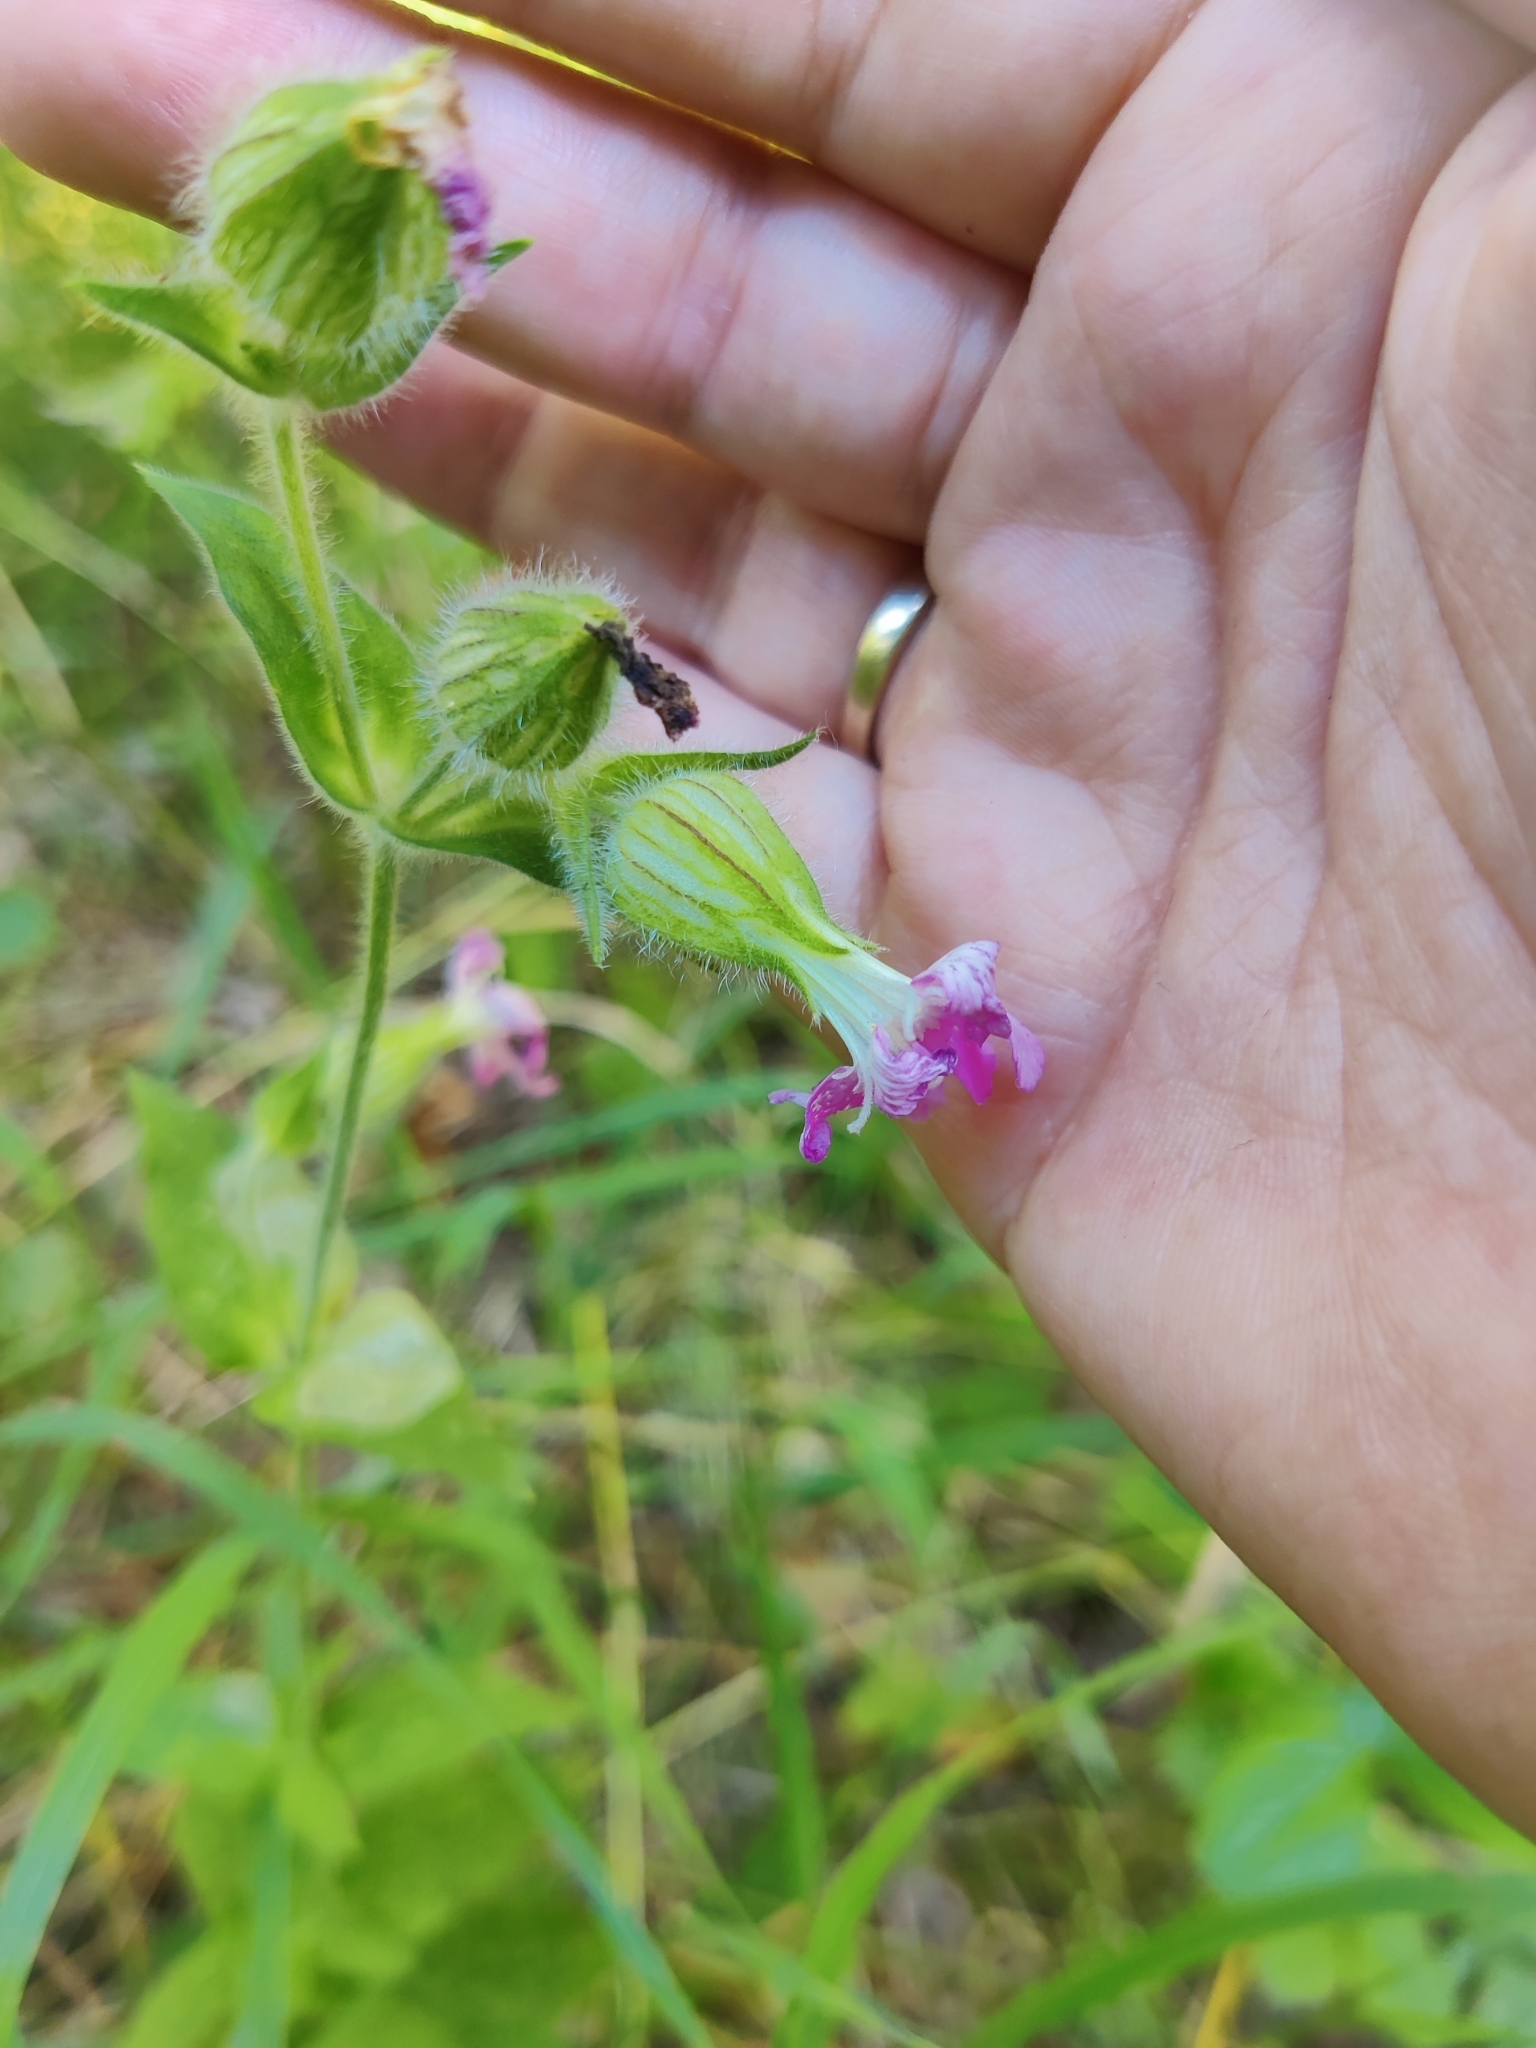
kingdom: Plantae
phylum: Tracheophyta
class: Magnoliopsida
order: Caryophyllales
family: Caryophyllaceae
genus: Silene
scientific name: Silene dioica
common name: Red campion
